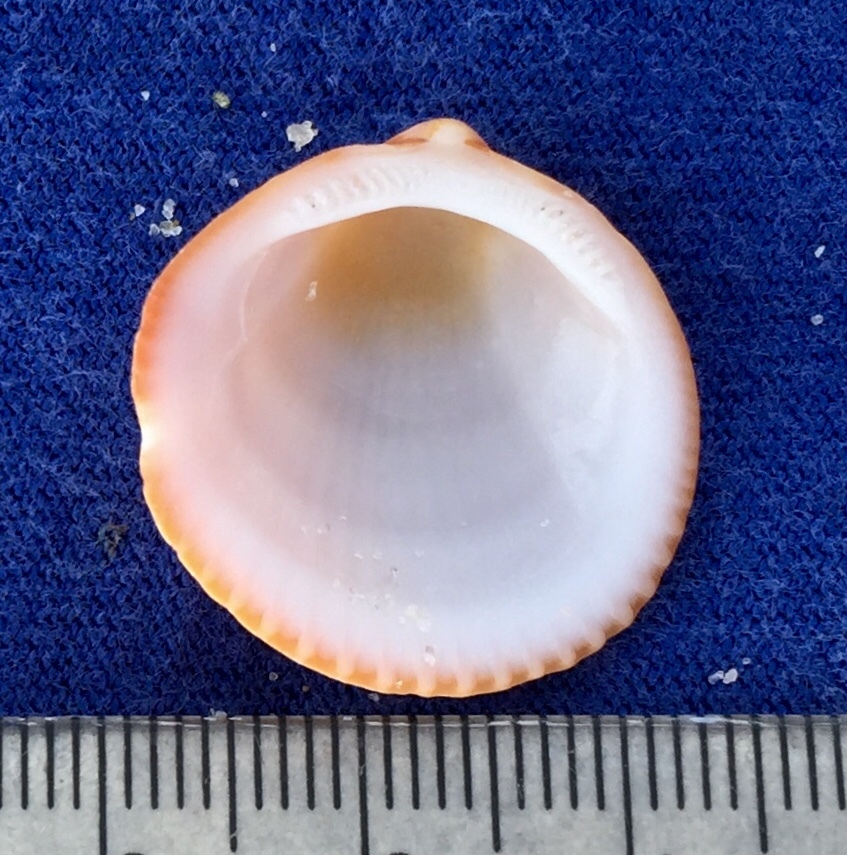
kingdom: Animalia
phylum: Mollusca
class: Bivalvia
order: Arcida
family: Glycymerididae
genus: Glycymeris
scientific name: Glycymeris spectralis
